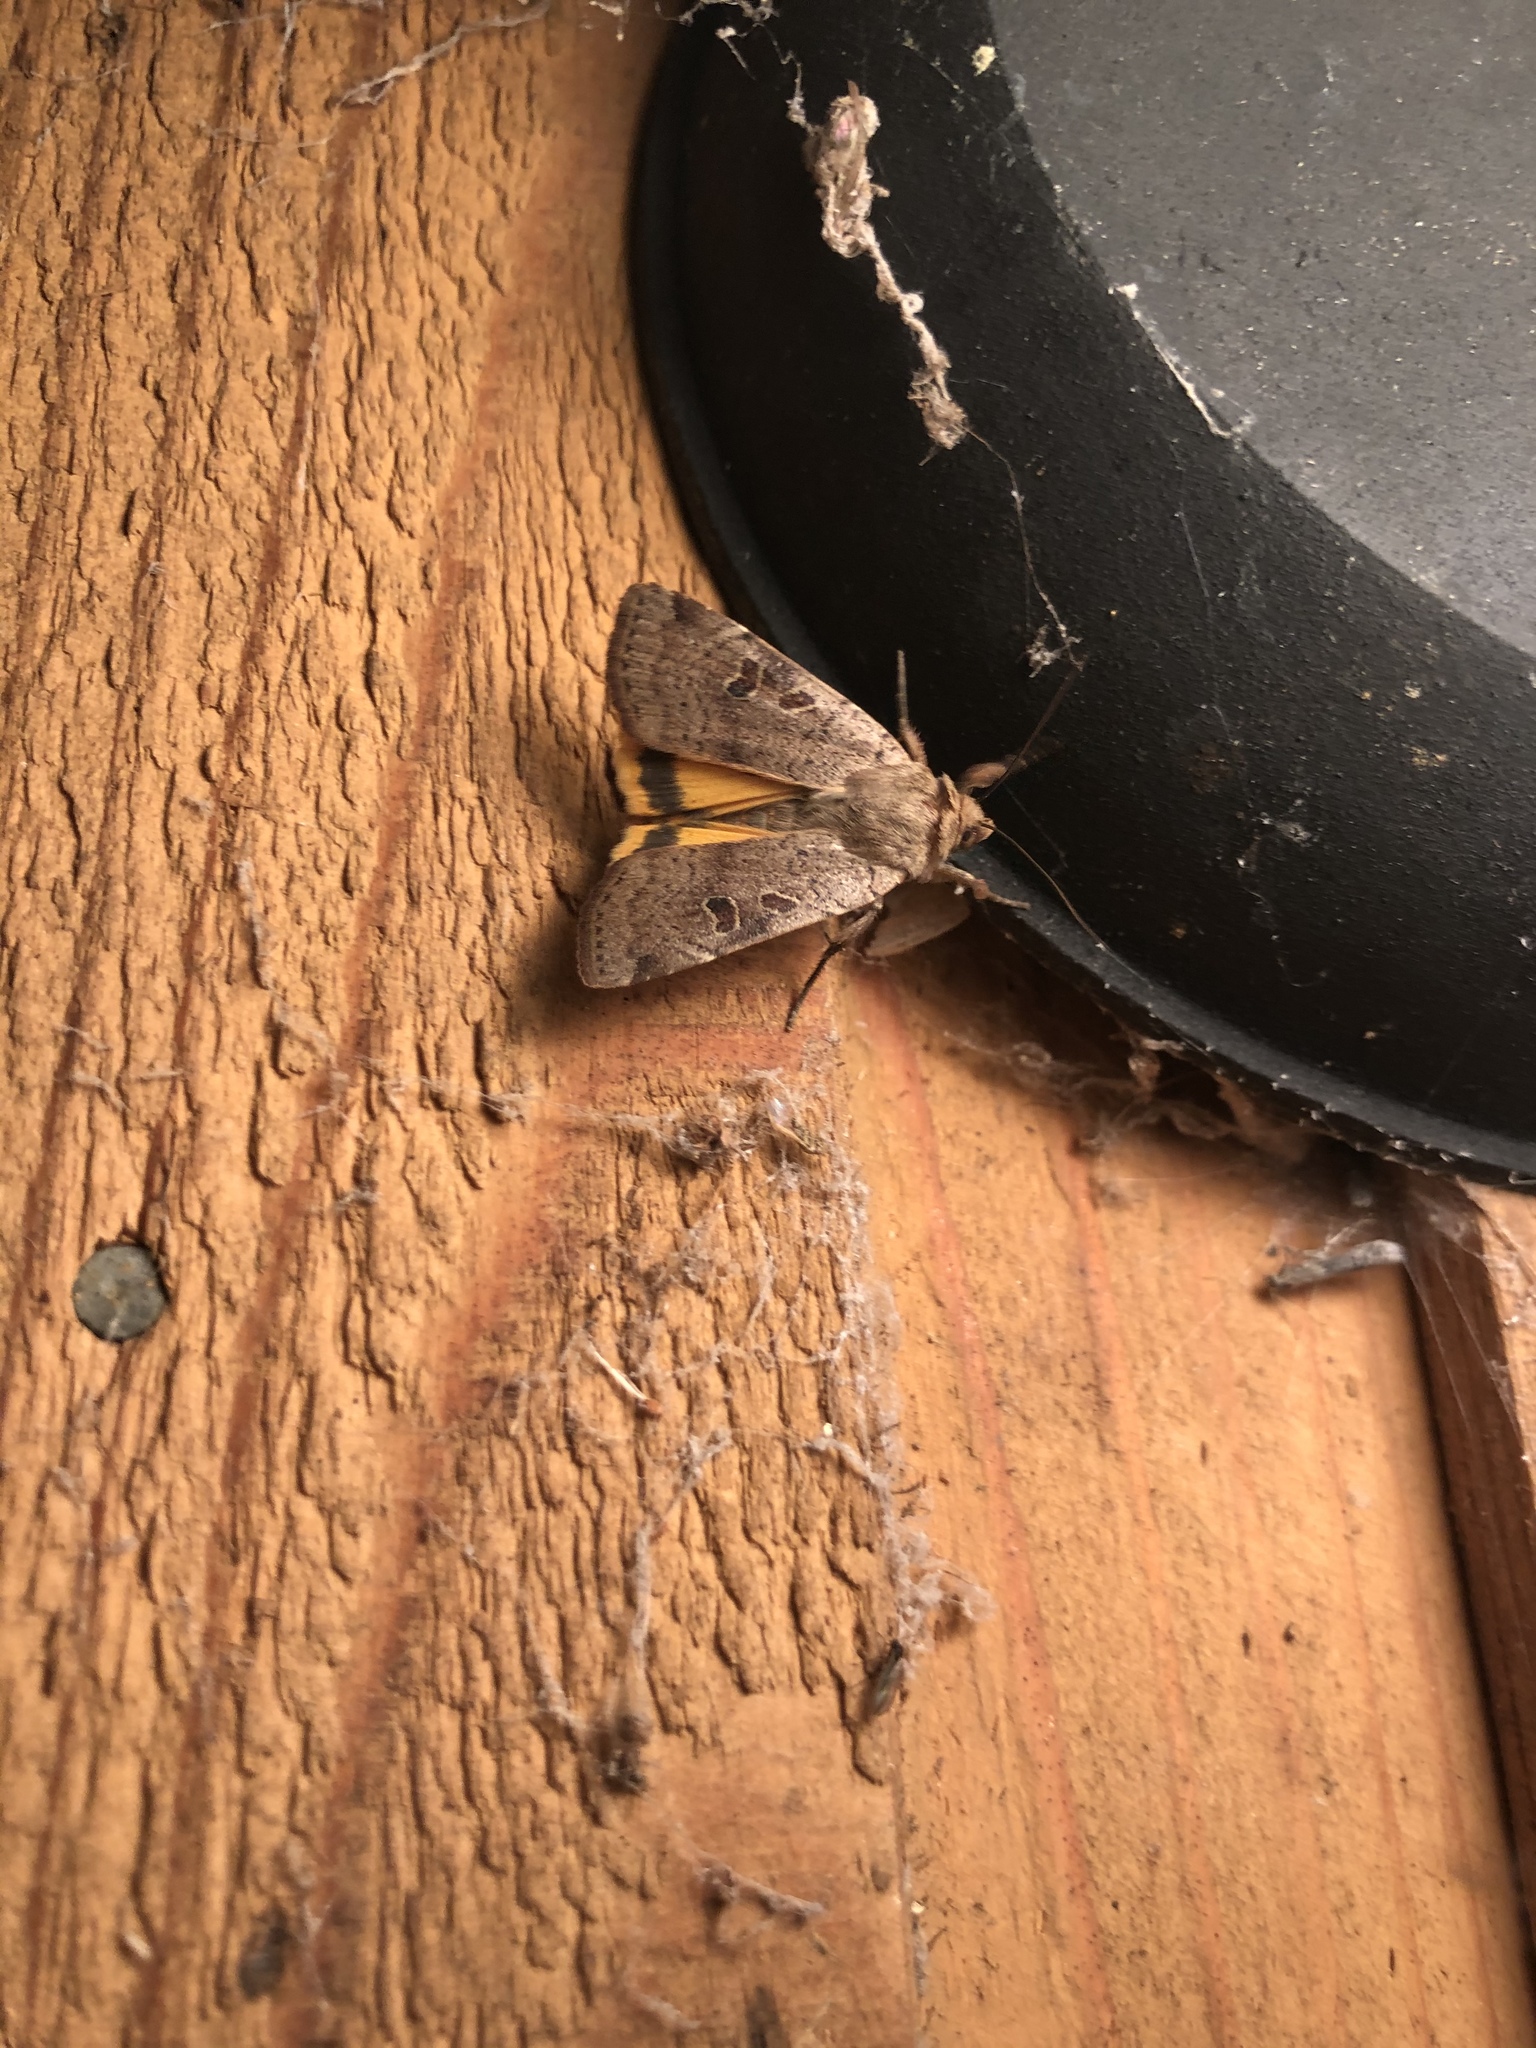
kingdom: Animalia
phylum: Arthropoda
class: Insecta
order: Lepidoptera
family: Noctuidae
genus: Noctua
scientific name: Noctua comes
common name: Lesser yellow underwing
